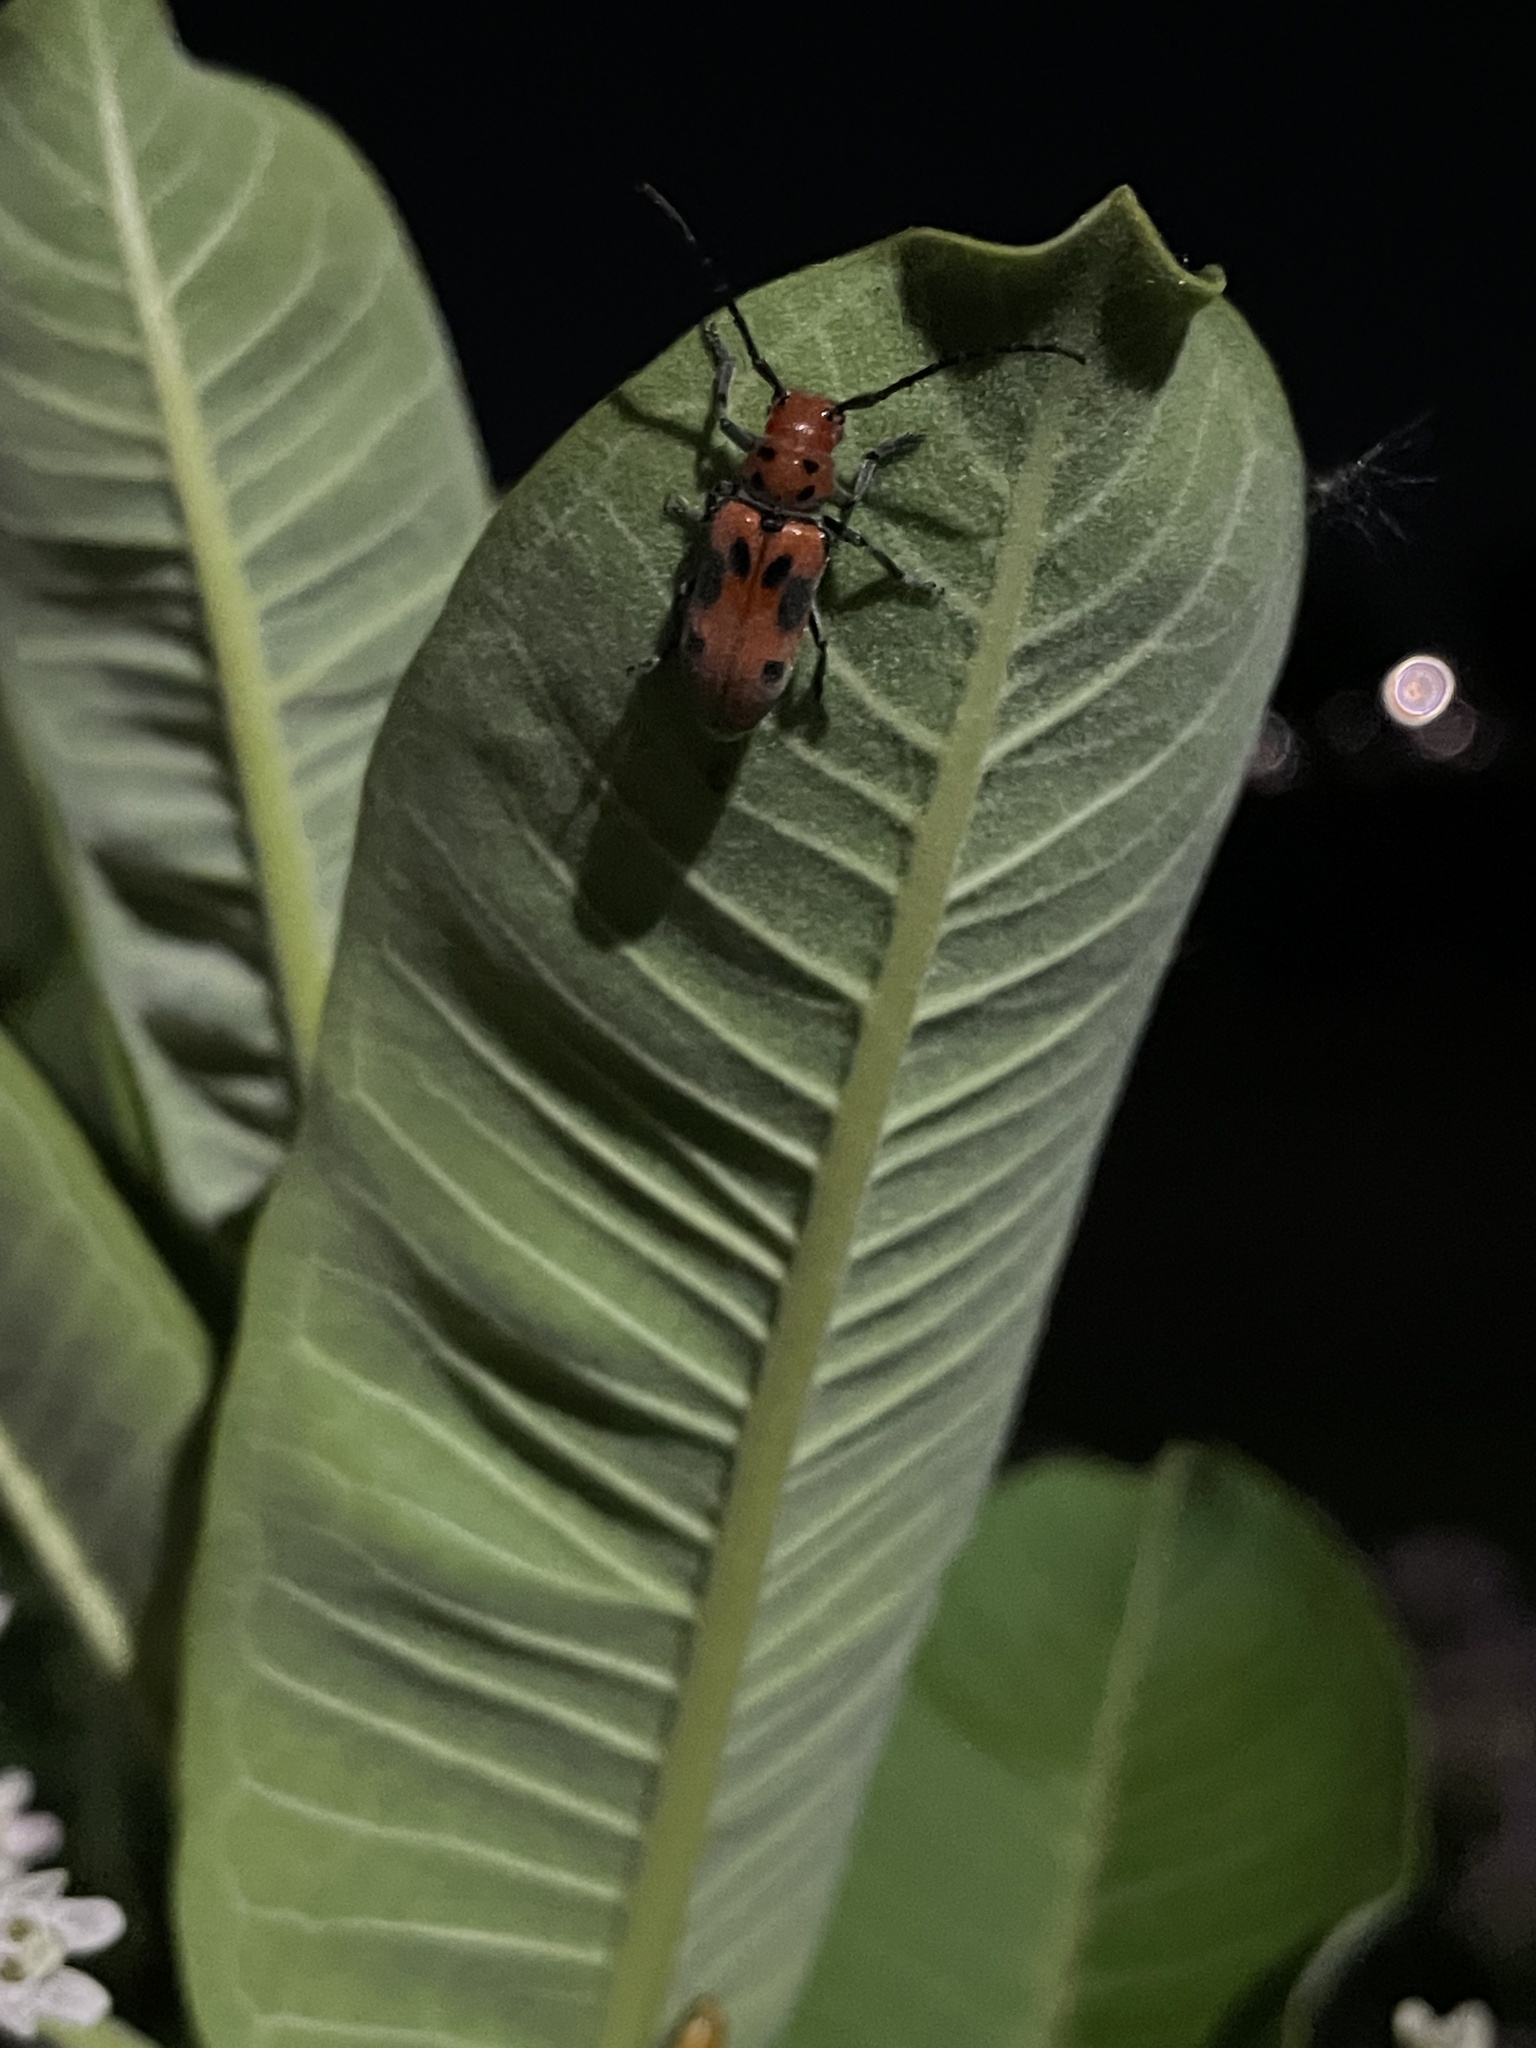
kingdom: Animalia
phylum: Arthropoda
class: Insecta
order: Coleoptera
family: Cerambycidae
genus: Tetraopes
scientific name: Tetraopes tetrophthalmus
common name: Red milkweed beetle
